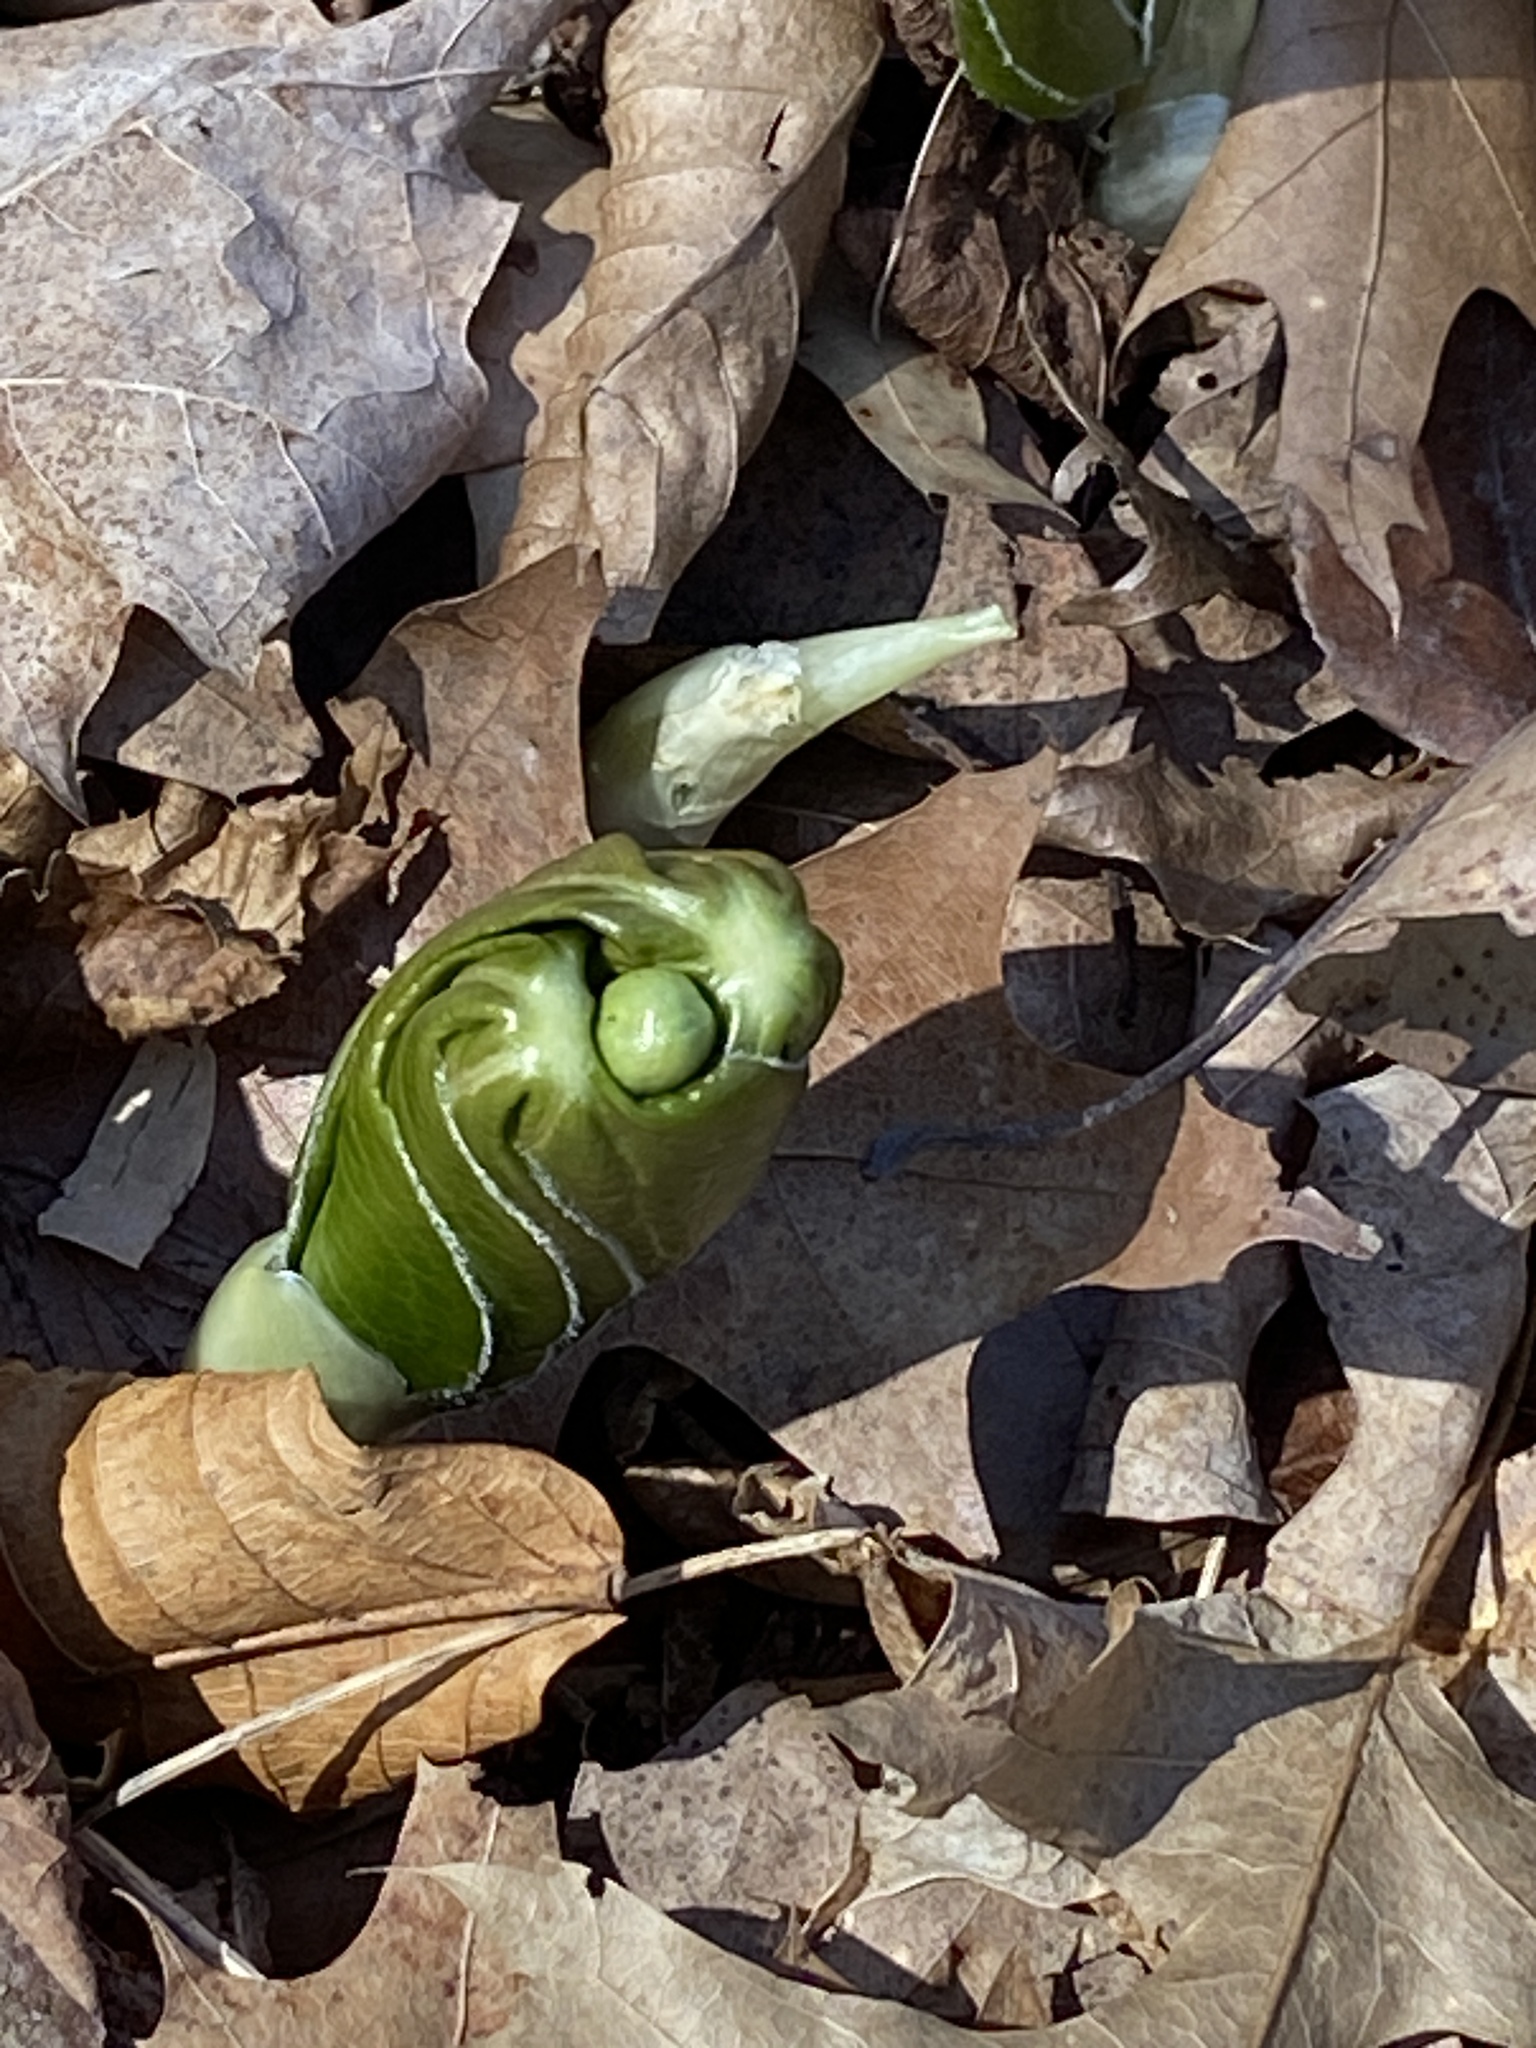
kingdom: Plantae
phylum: Tracheophyta
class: Magnoliopsida
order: Ranunculales
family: Berberidaceae
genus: Podophyllum
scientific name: Podophyllum peltatum
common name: Wild mandrake
